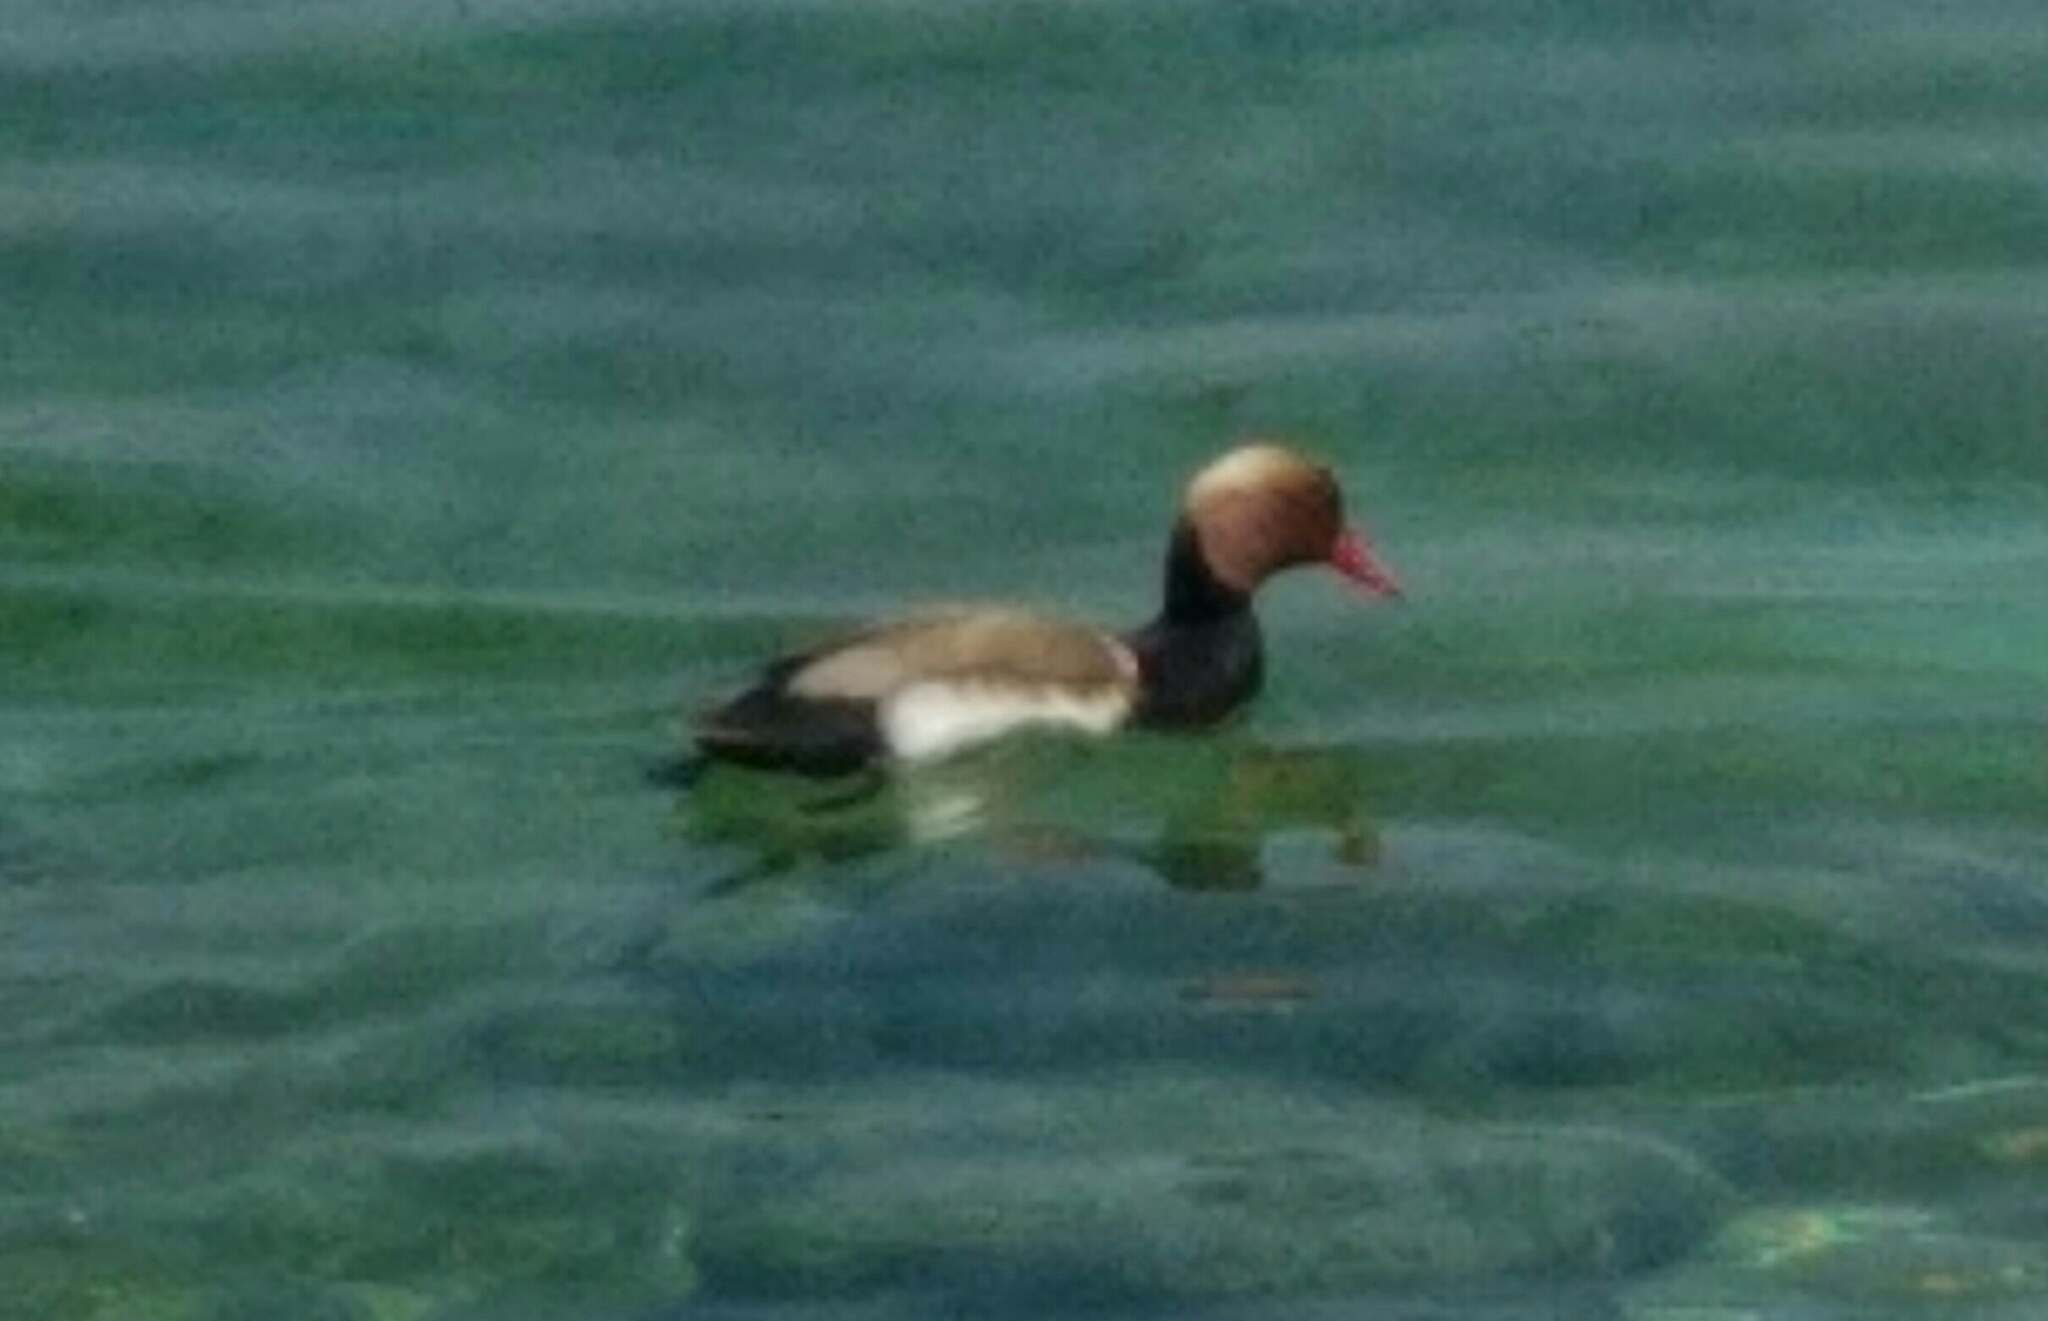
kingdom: Animalia
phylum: Chordata
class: Aves
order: Anseriformes
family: Anatidae
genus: Netta
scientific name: Netta rufina
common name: Red-crested pochard
